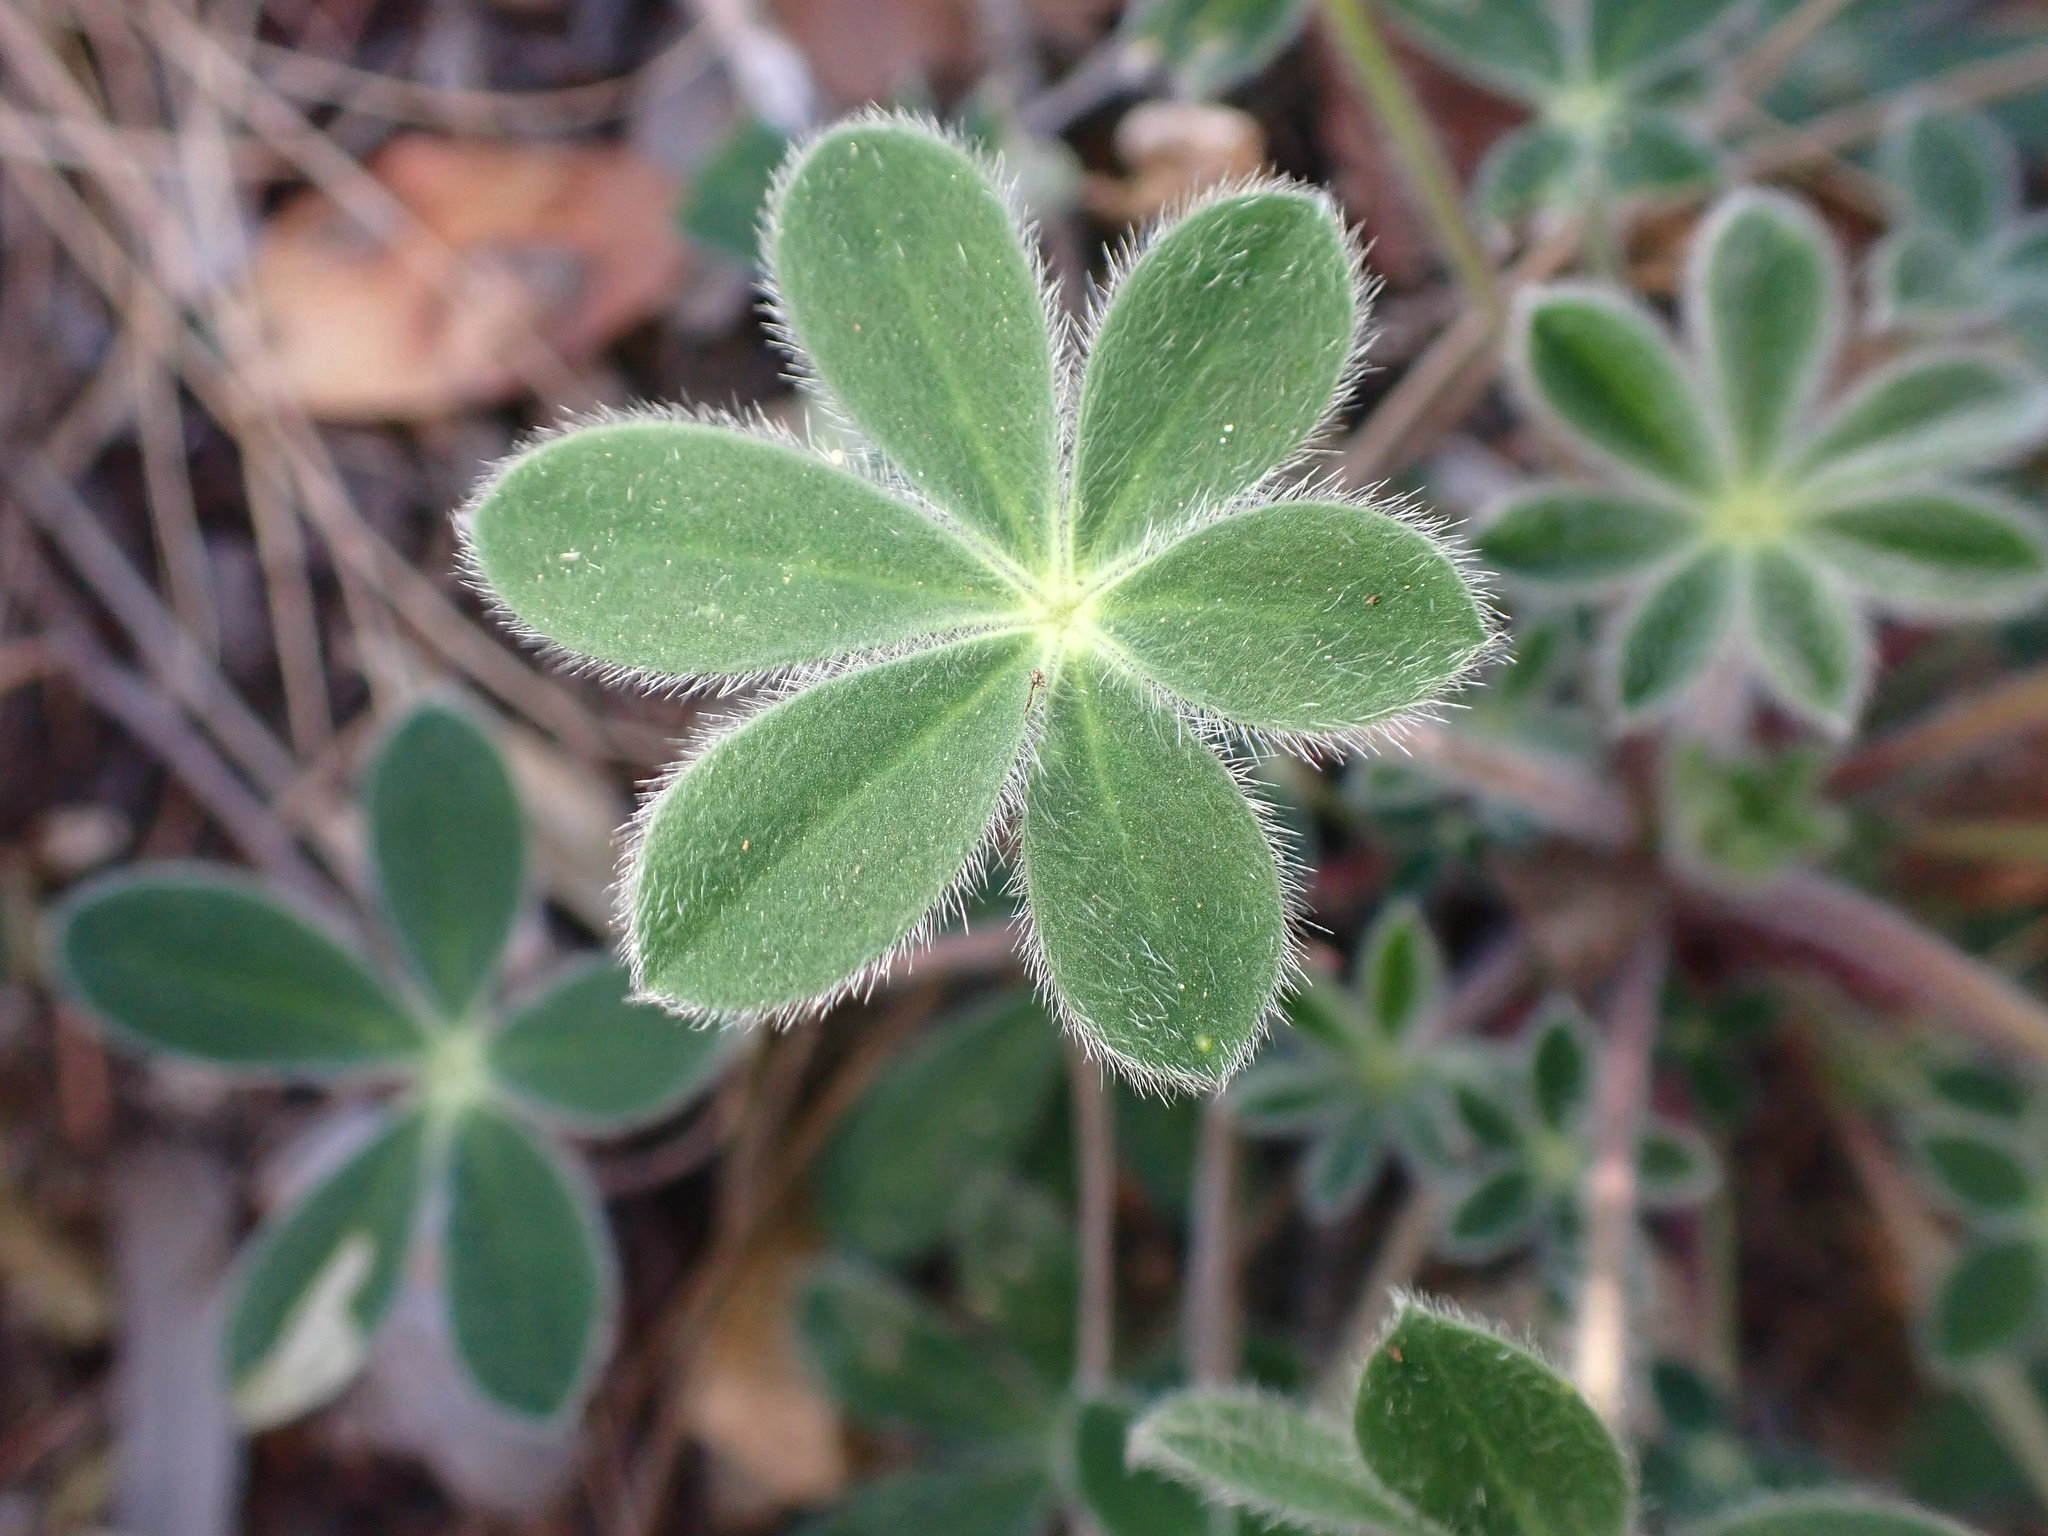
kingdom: Plantae
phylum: Tracheophyta
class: Magnoliopsida
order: Fabales
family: Fabaceae
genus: Lupinus
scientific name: Lupinus huachucanus
